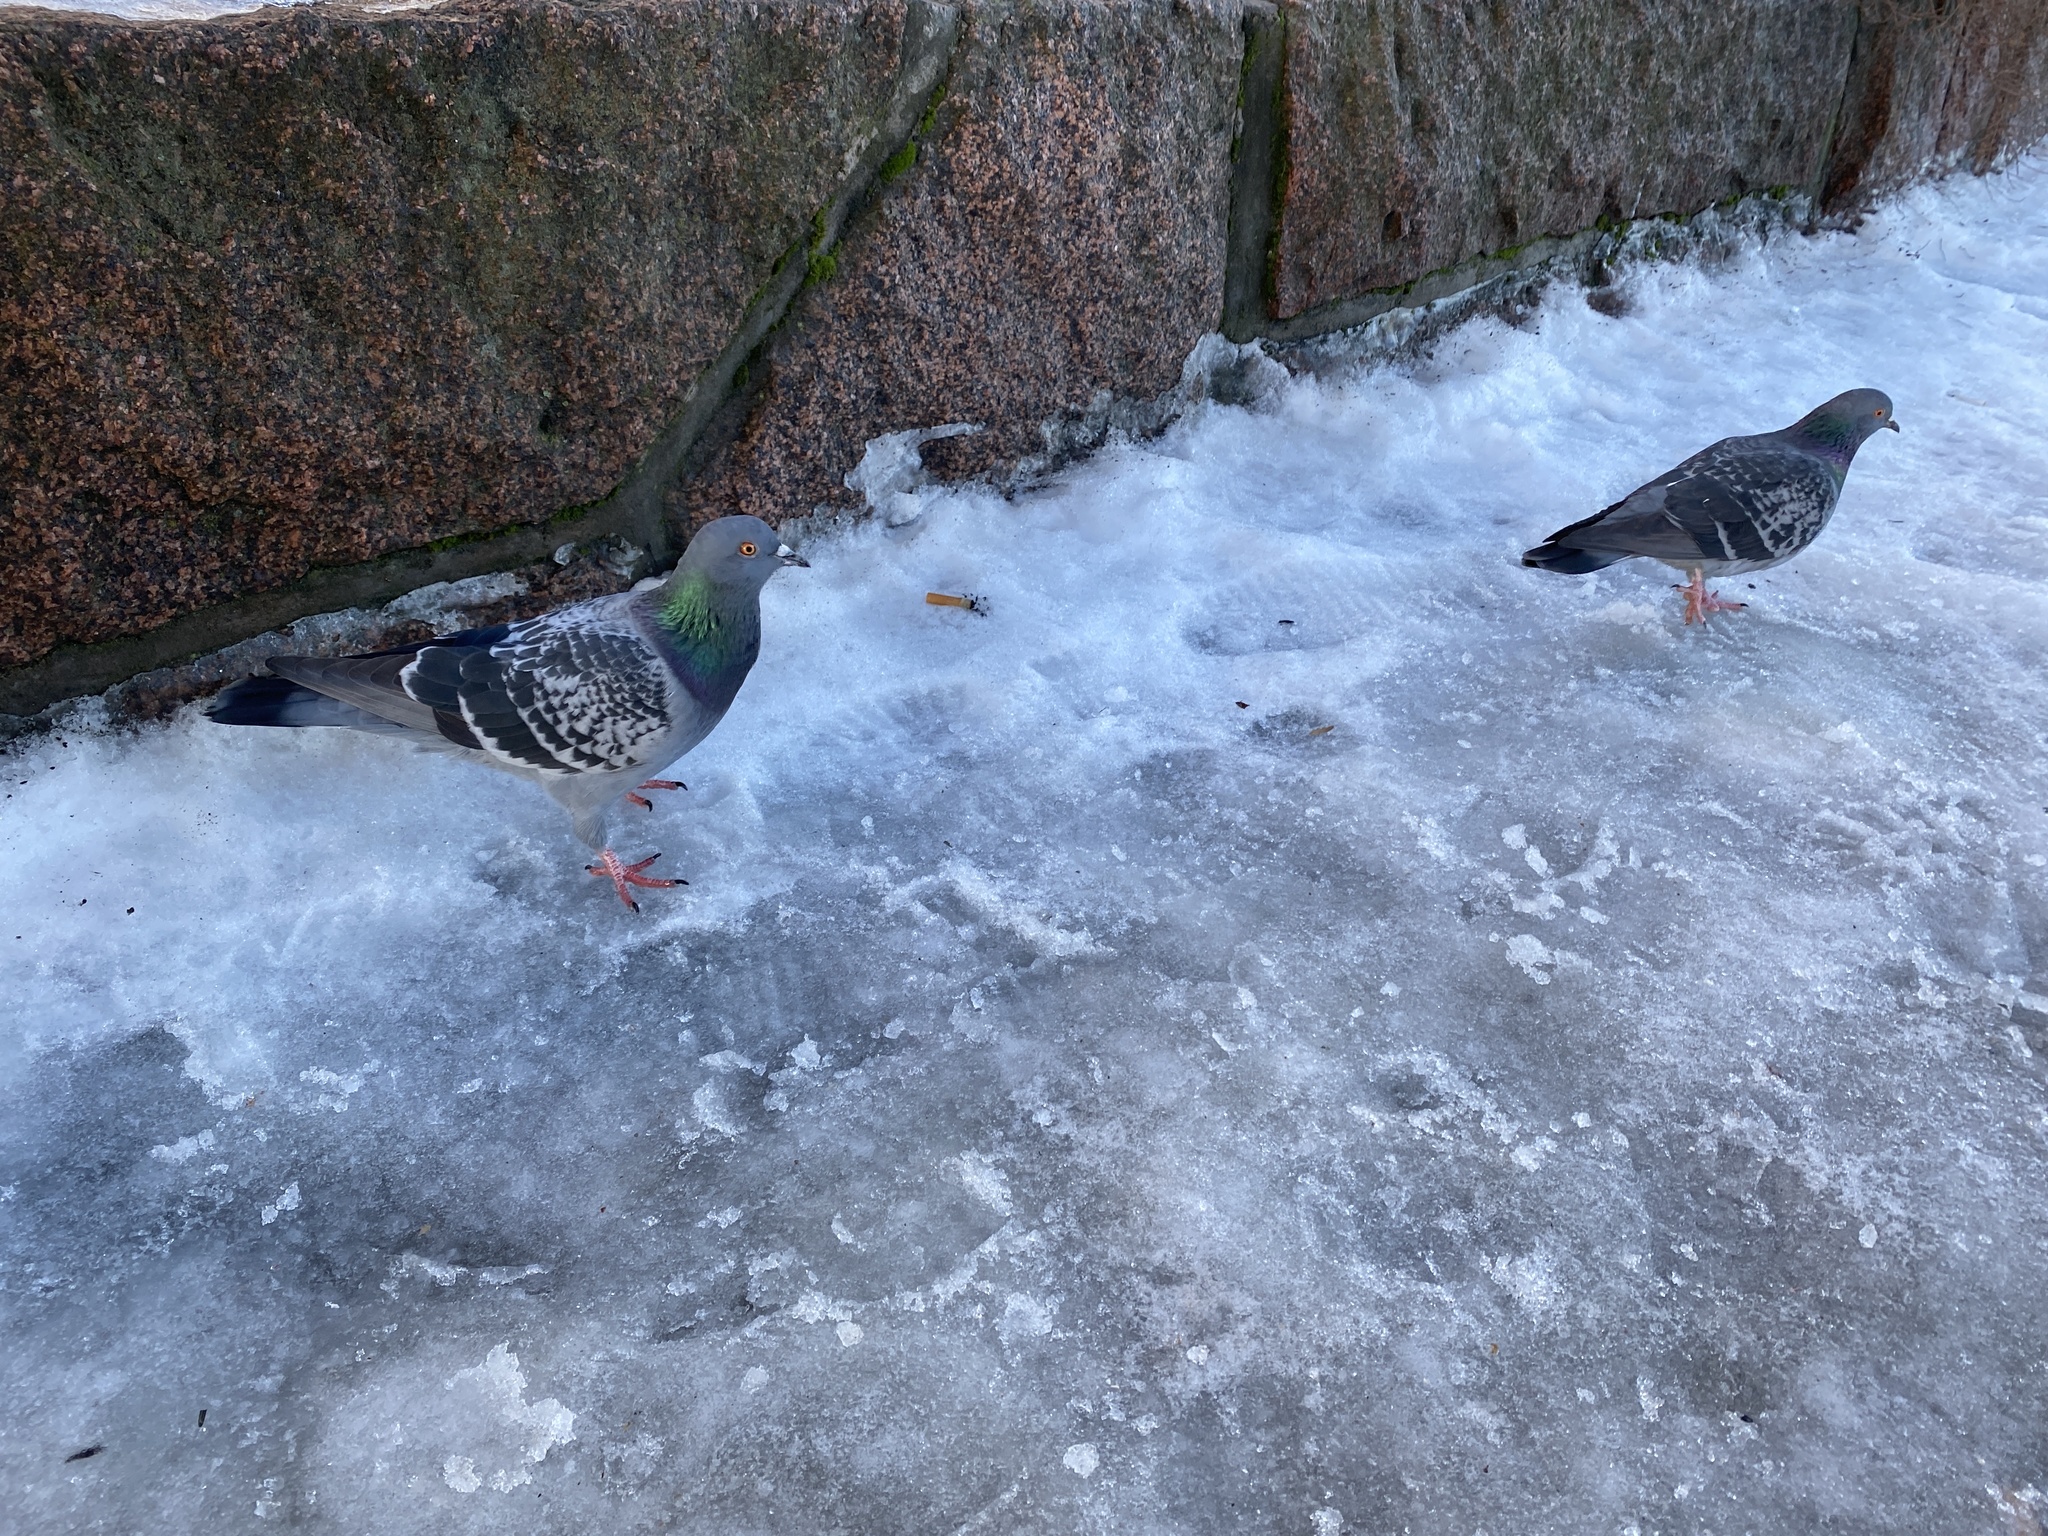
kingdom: Animalia
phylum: Chordata
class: Aves
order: Columbiformes
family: Columbidae
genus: Columba
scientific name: Columba livia
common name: Rock pigeon
